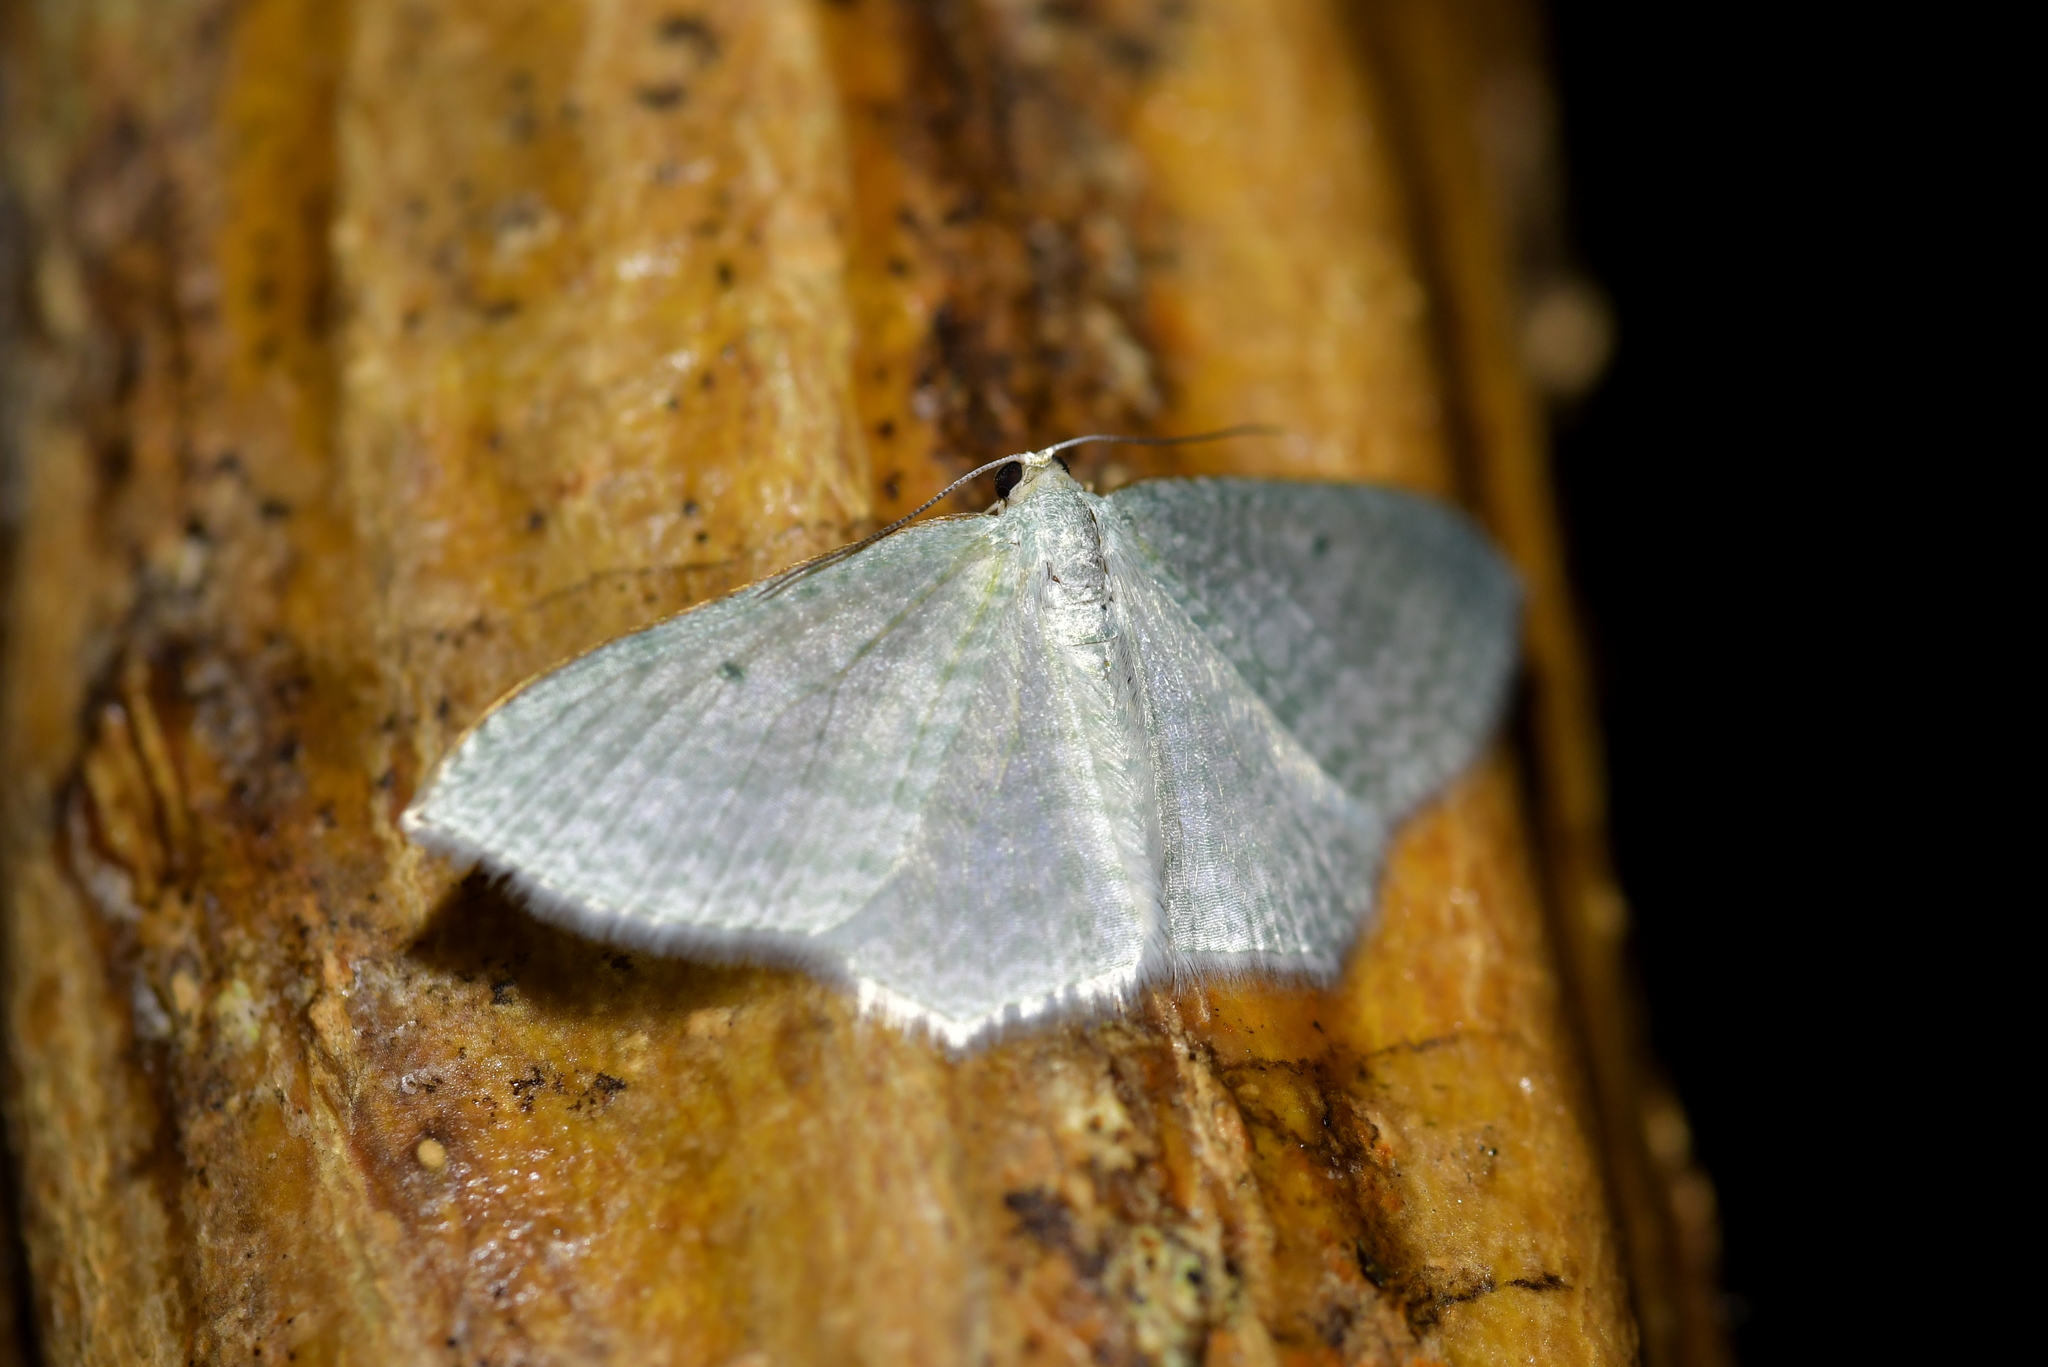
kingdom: Animalia
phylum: Arthropoda
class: Insecta
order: Lepidoptera
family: Geometridae
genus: Poecilasthena
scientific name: Poecilasthena pulchraria
